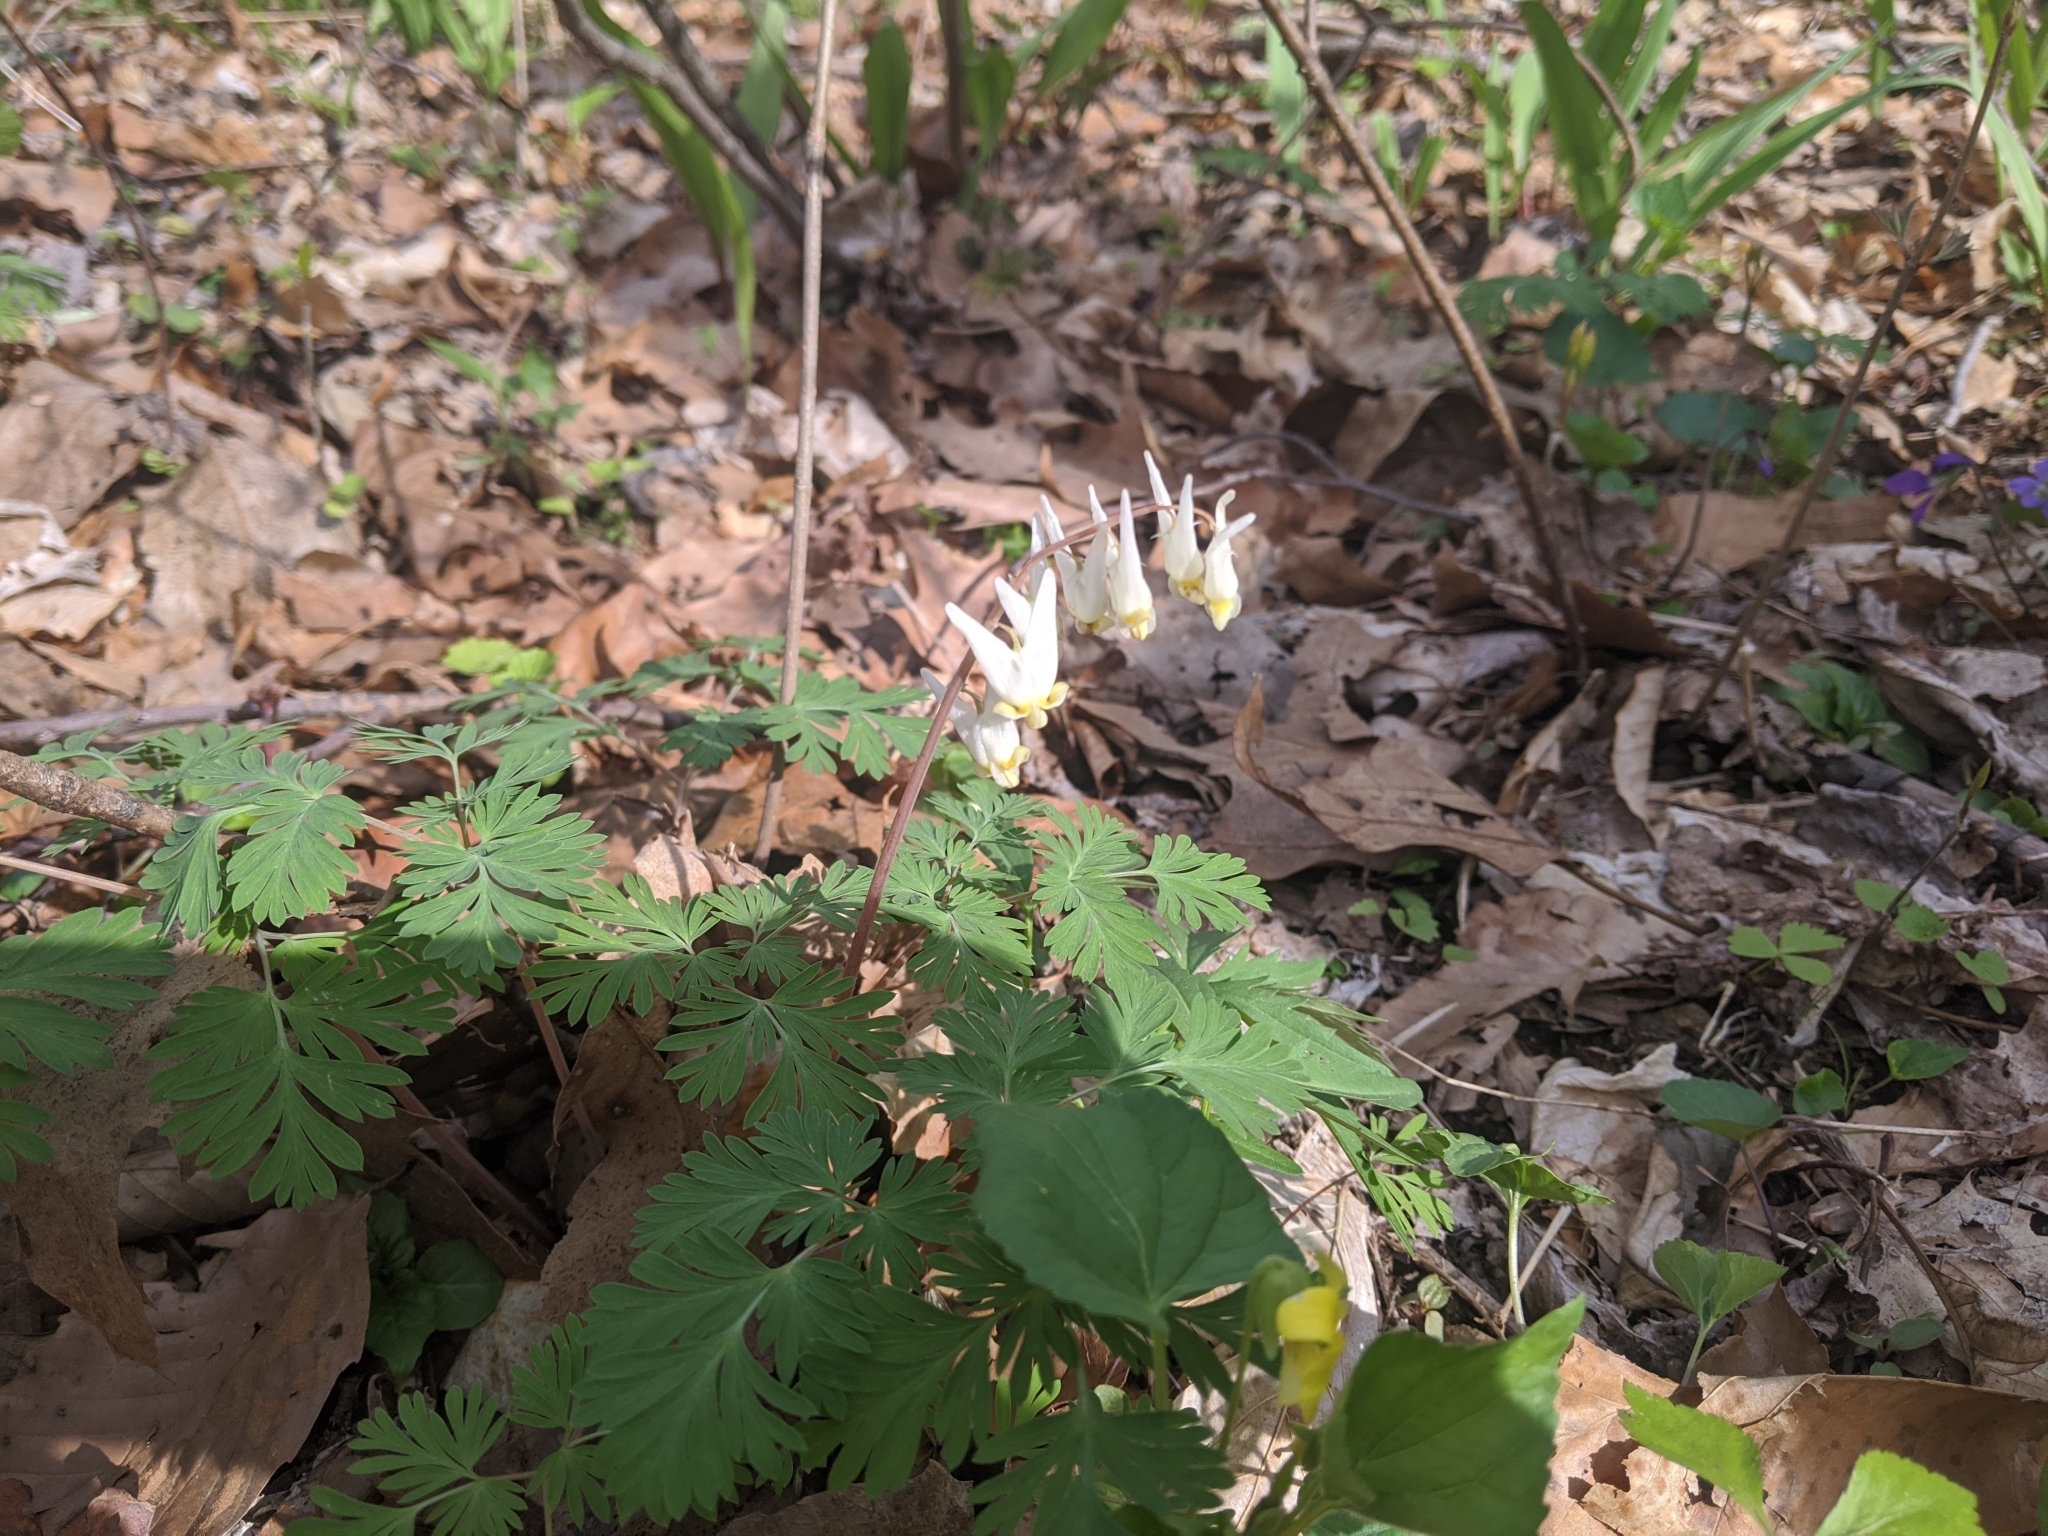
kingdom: Plantae
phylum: Tracheophyta
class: Magnoliopsida
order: Ranunculales
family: Papaveraceae
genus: Dicentra
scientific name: Dicentra cucullaria
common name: Dutchman's breeches
